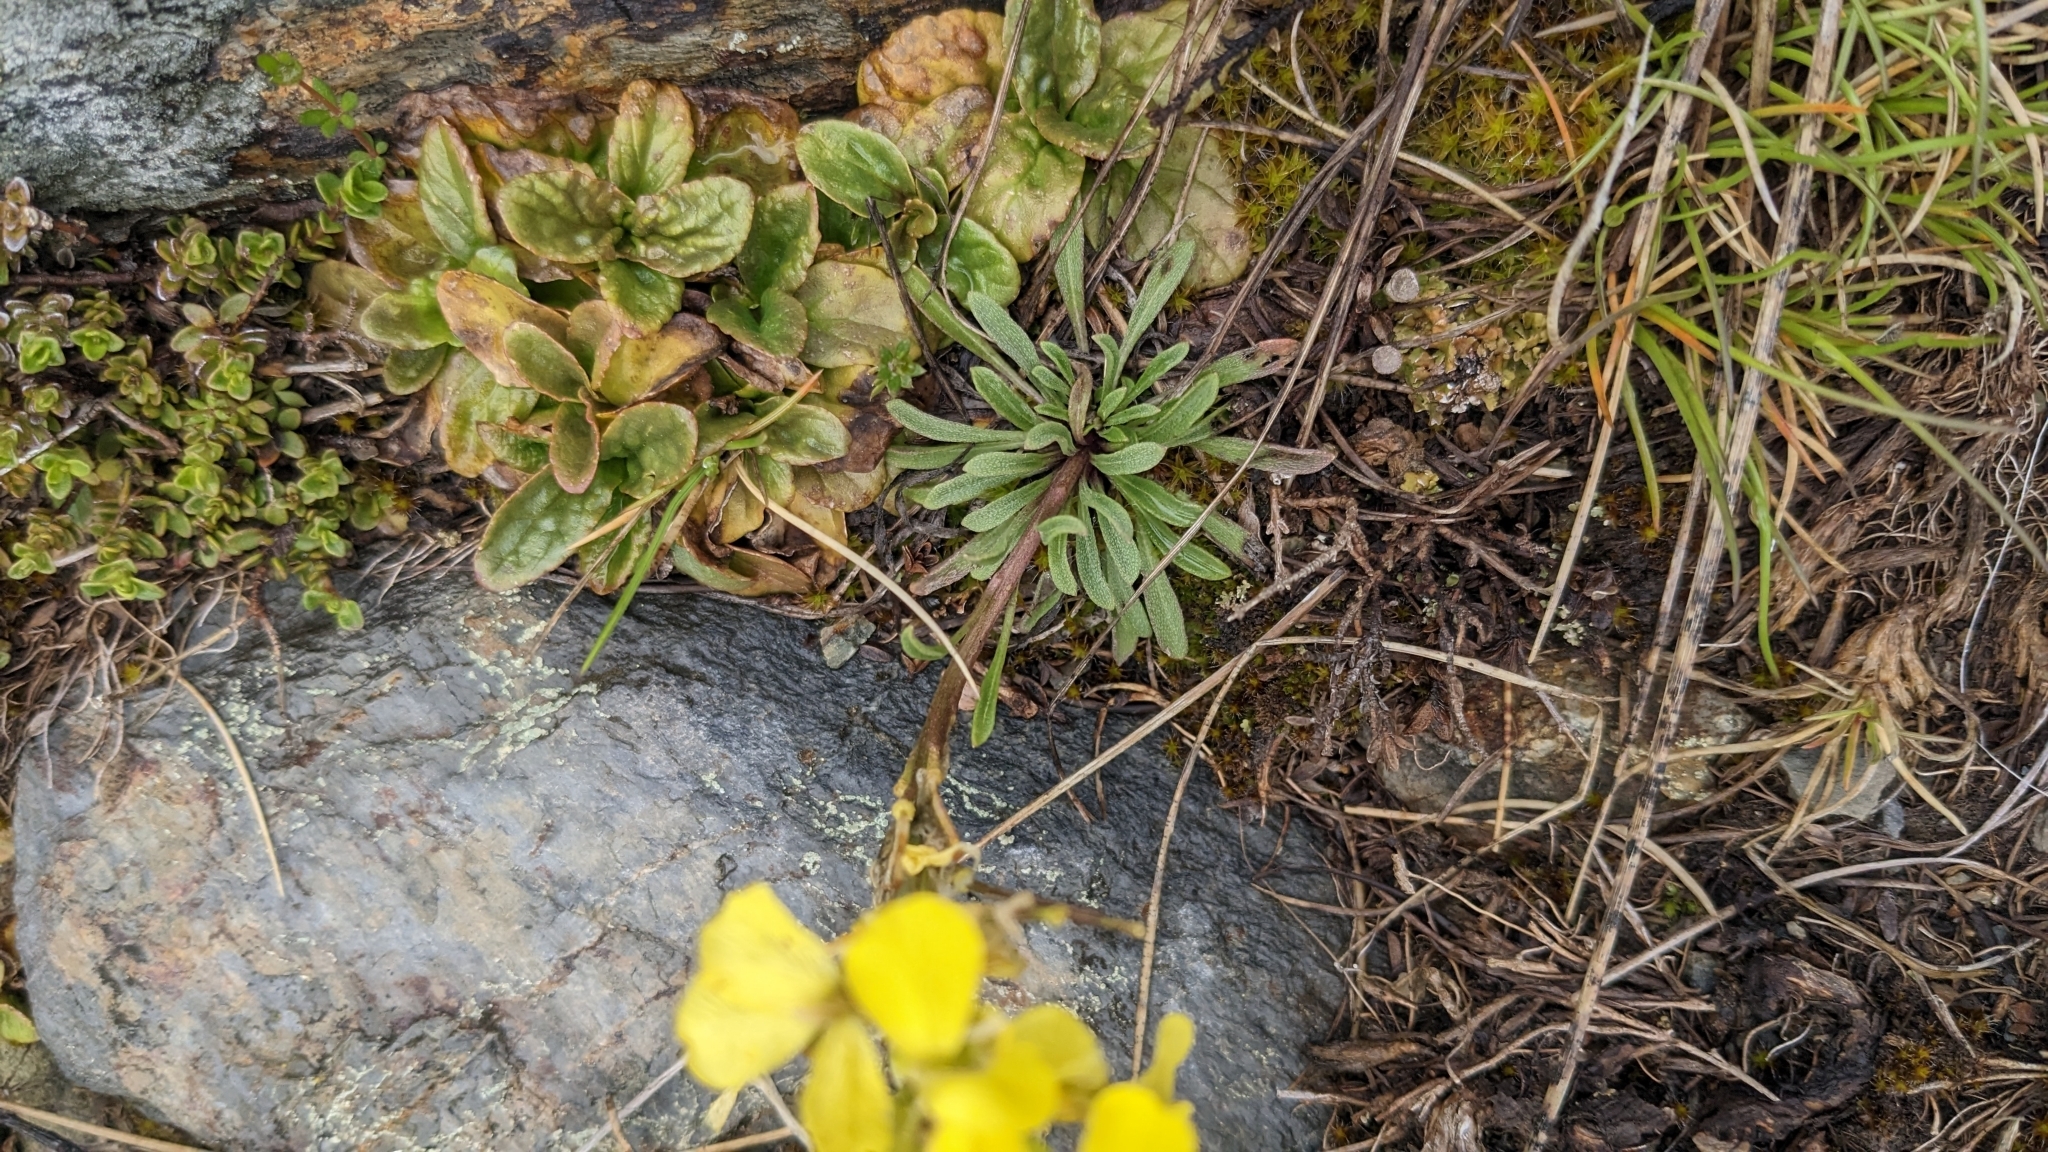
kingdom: Plantae
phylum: Tracheophyta
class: Magnoliopsida
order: Brassicales
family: Brassicaceae
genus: Erysimum
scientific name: Erysimum seipkae
